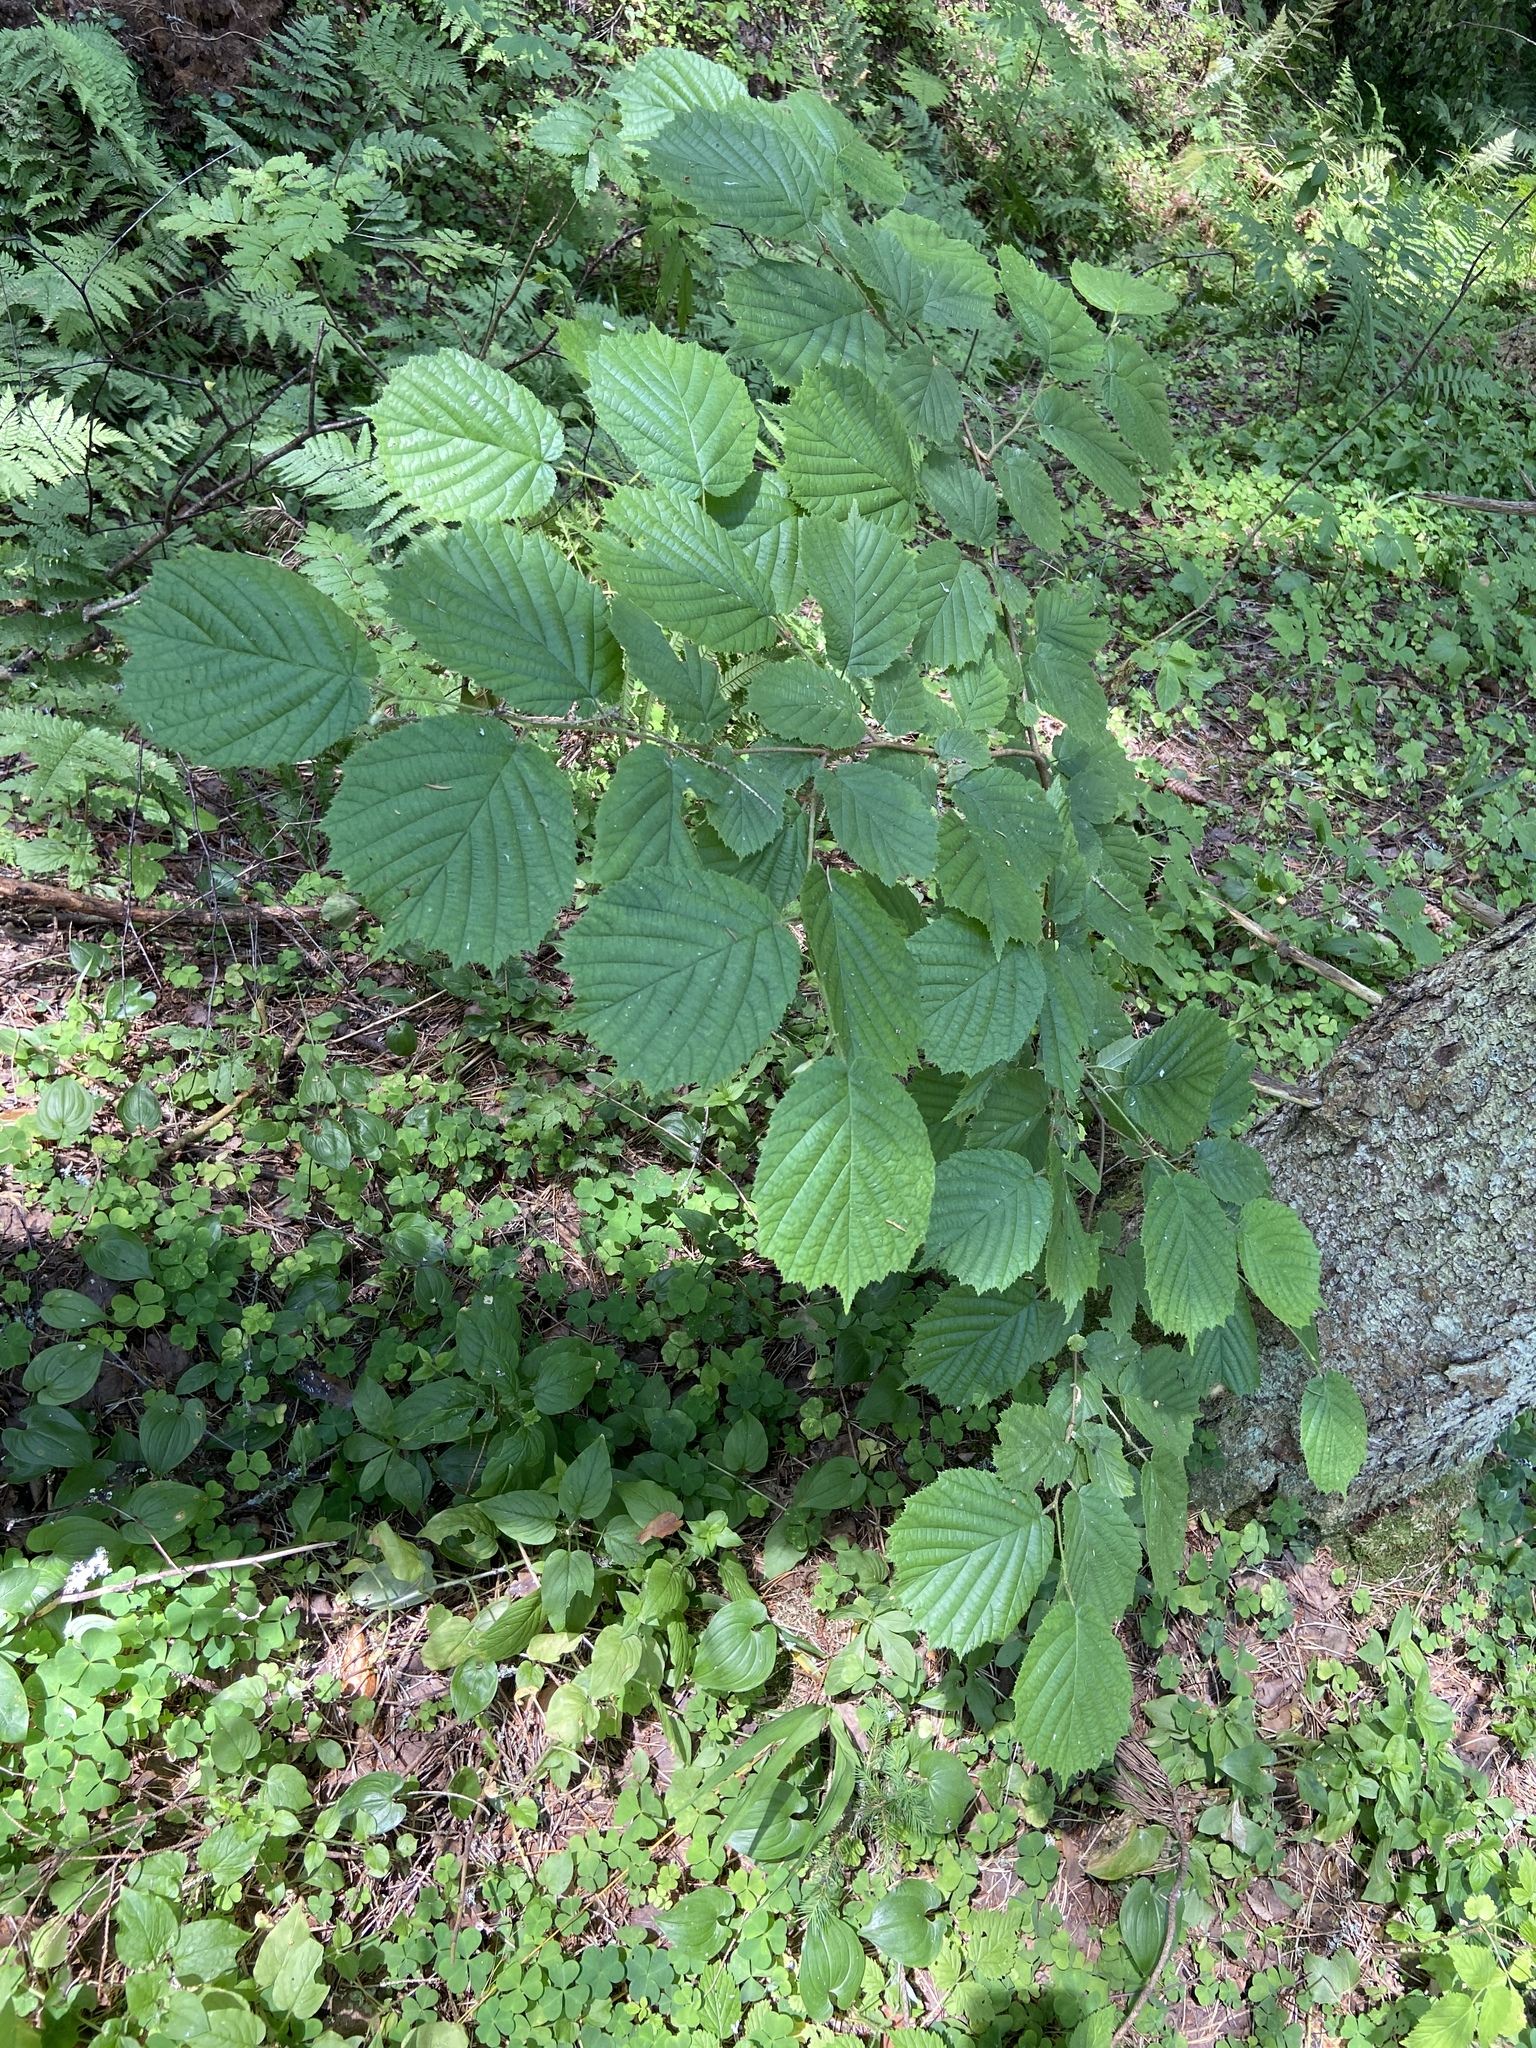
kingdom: Plantae
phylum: Tracheophyta
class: Magnoliopsida
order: Fagales
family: Betulaceae
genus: Corylus
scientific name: Corylus avellana
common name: European hazel
